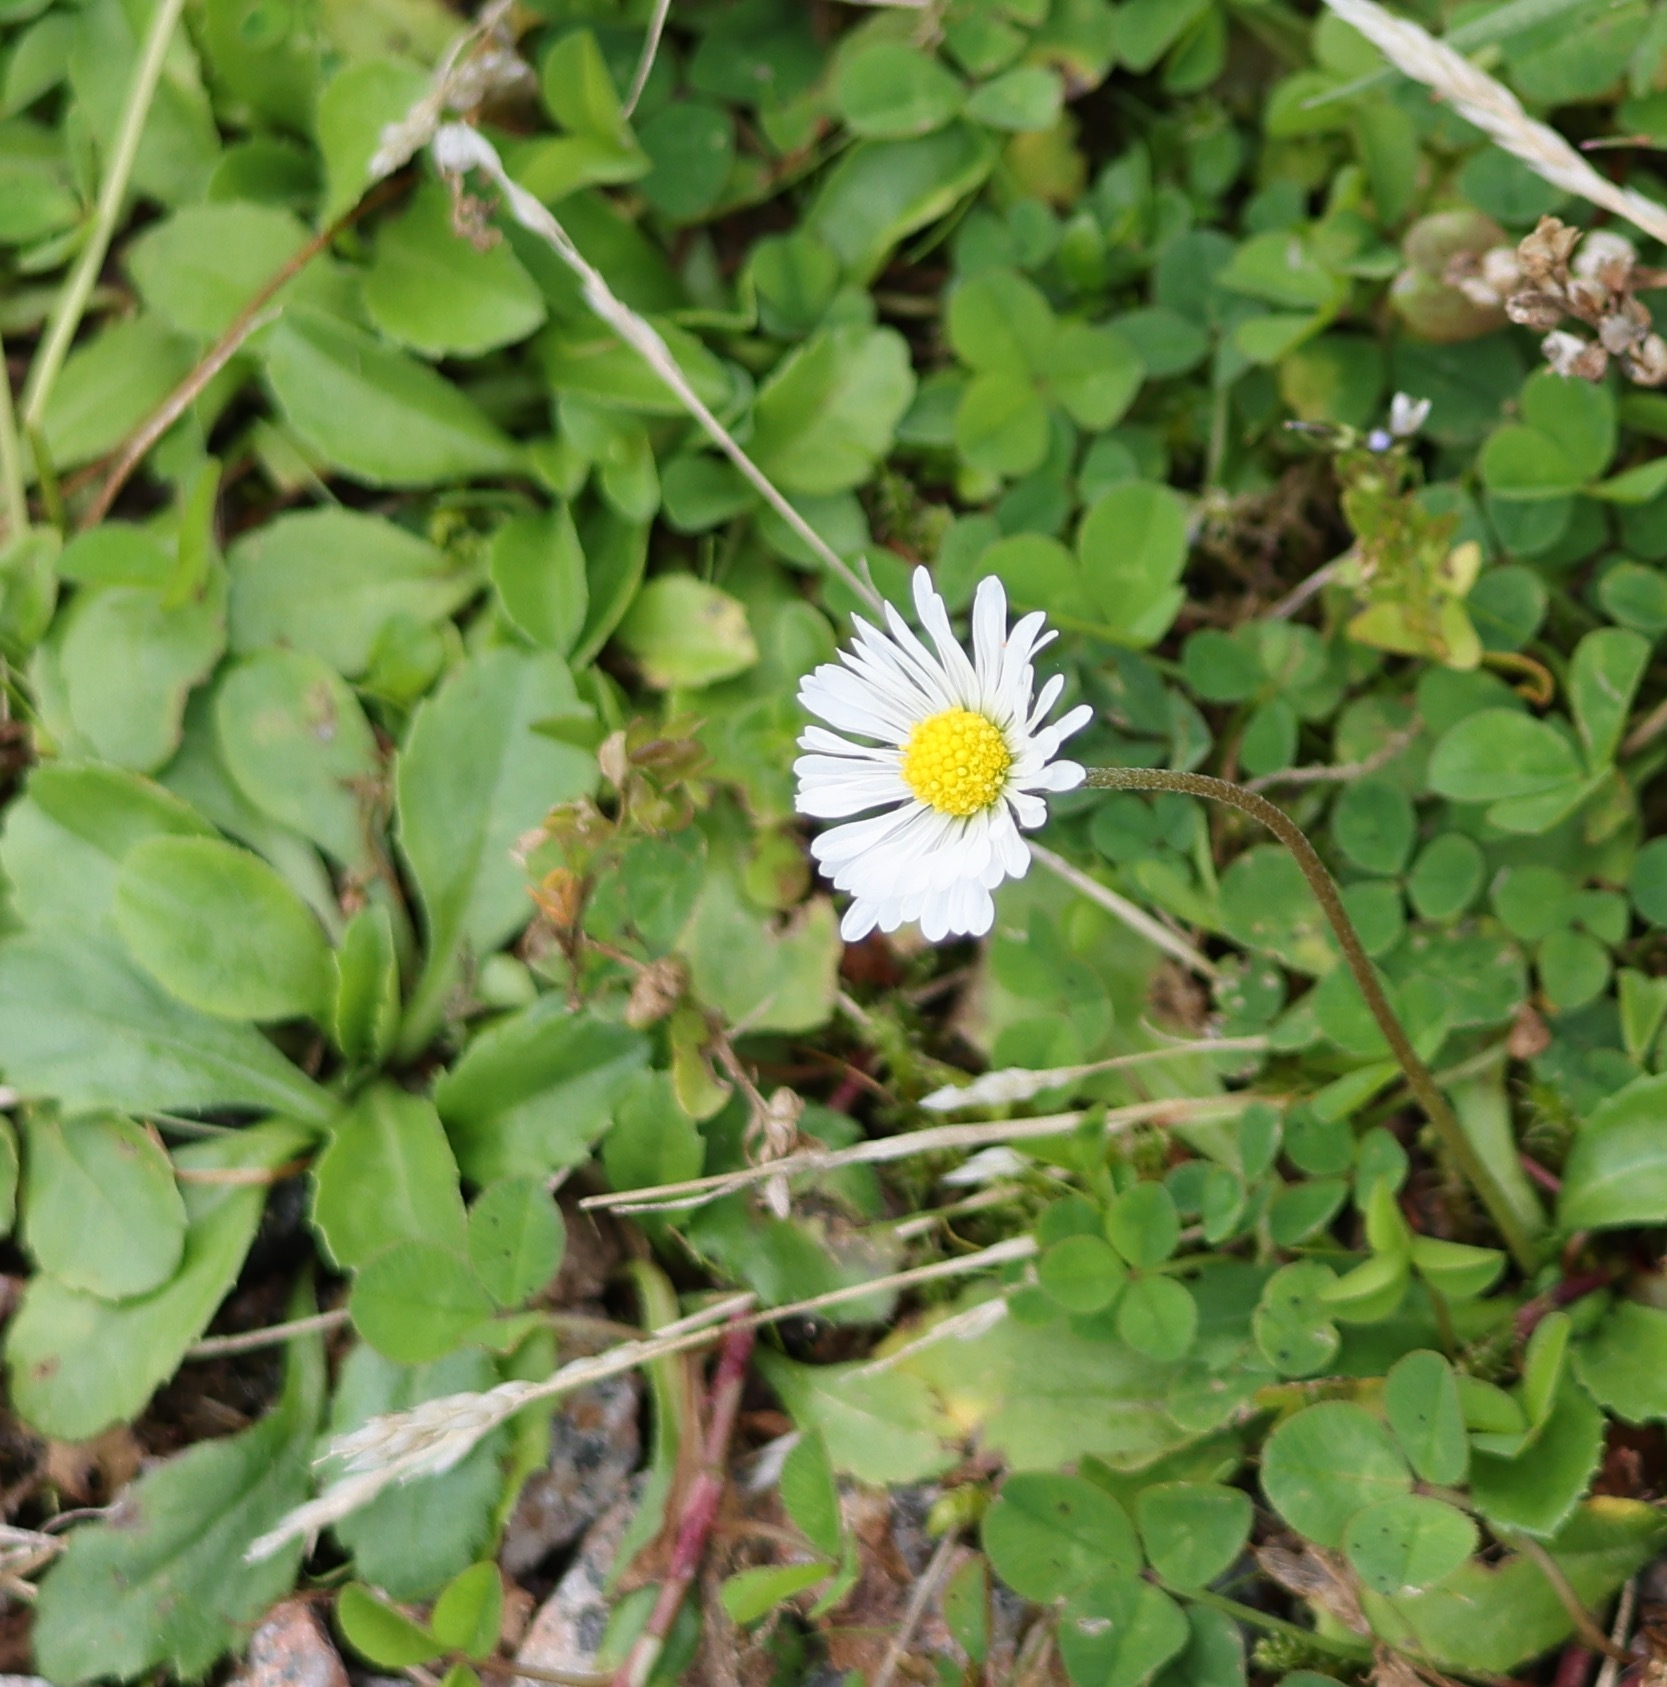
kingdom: Plantae
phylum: Tracheophyta
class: Magnoliopsida
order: Asterales
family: Asteraceae
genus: Bellis
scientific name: Bellis perennis
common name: Lawndaisy
